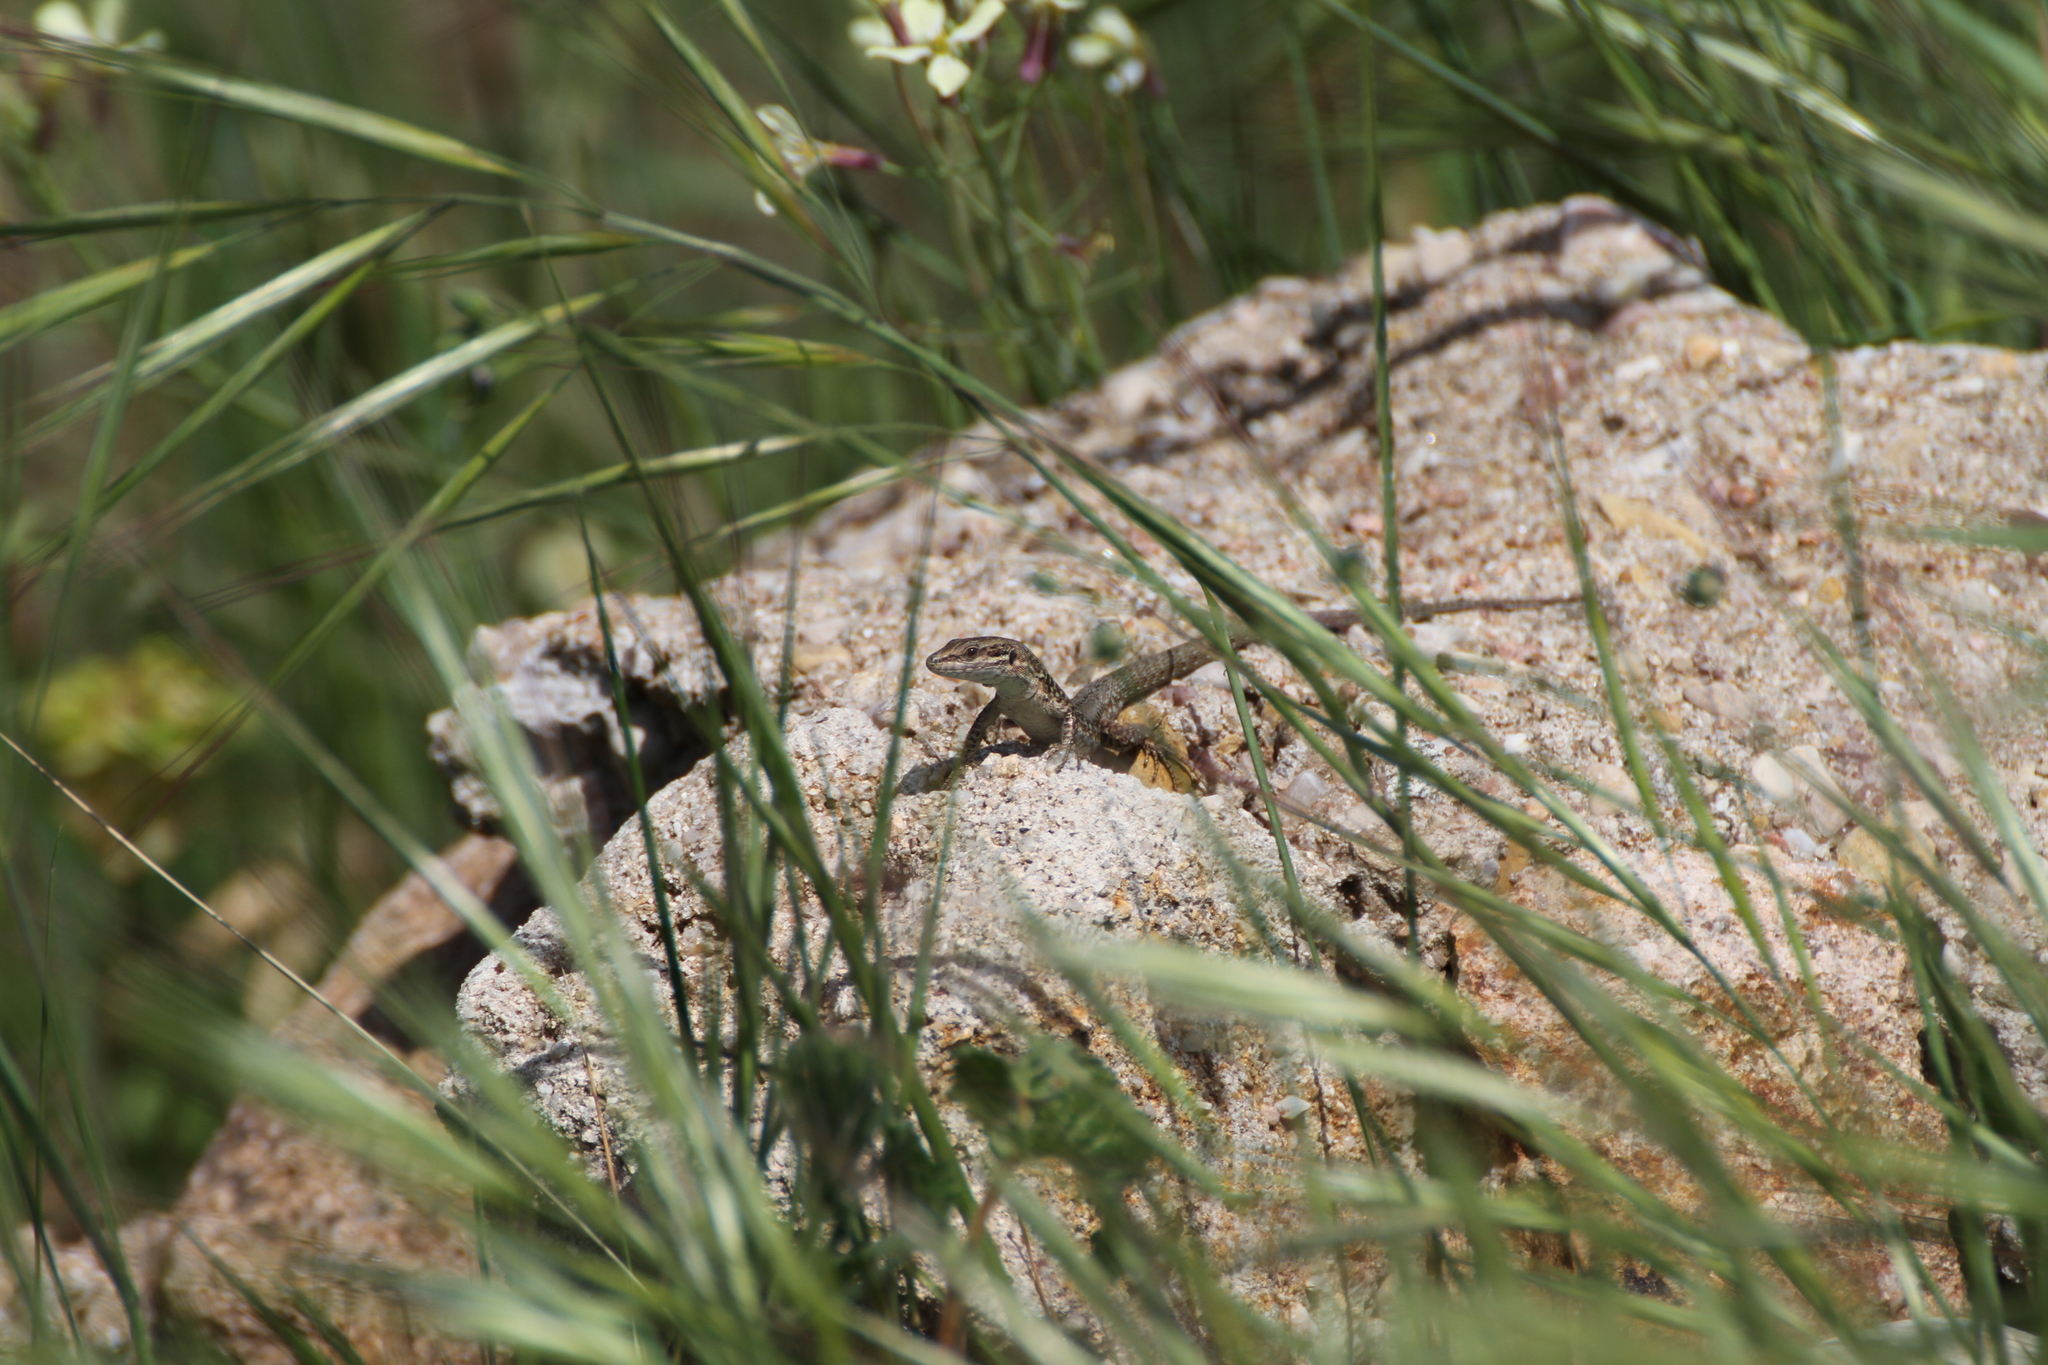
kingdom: Animalia
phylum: Chordata
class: Squamata
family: Lacertidae
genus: Podarcis
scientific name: Podarcis muralis
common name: Common wall lizard
